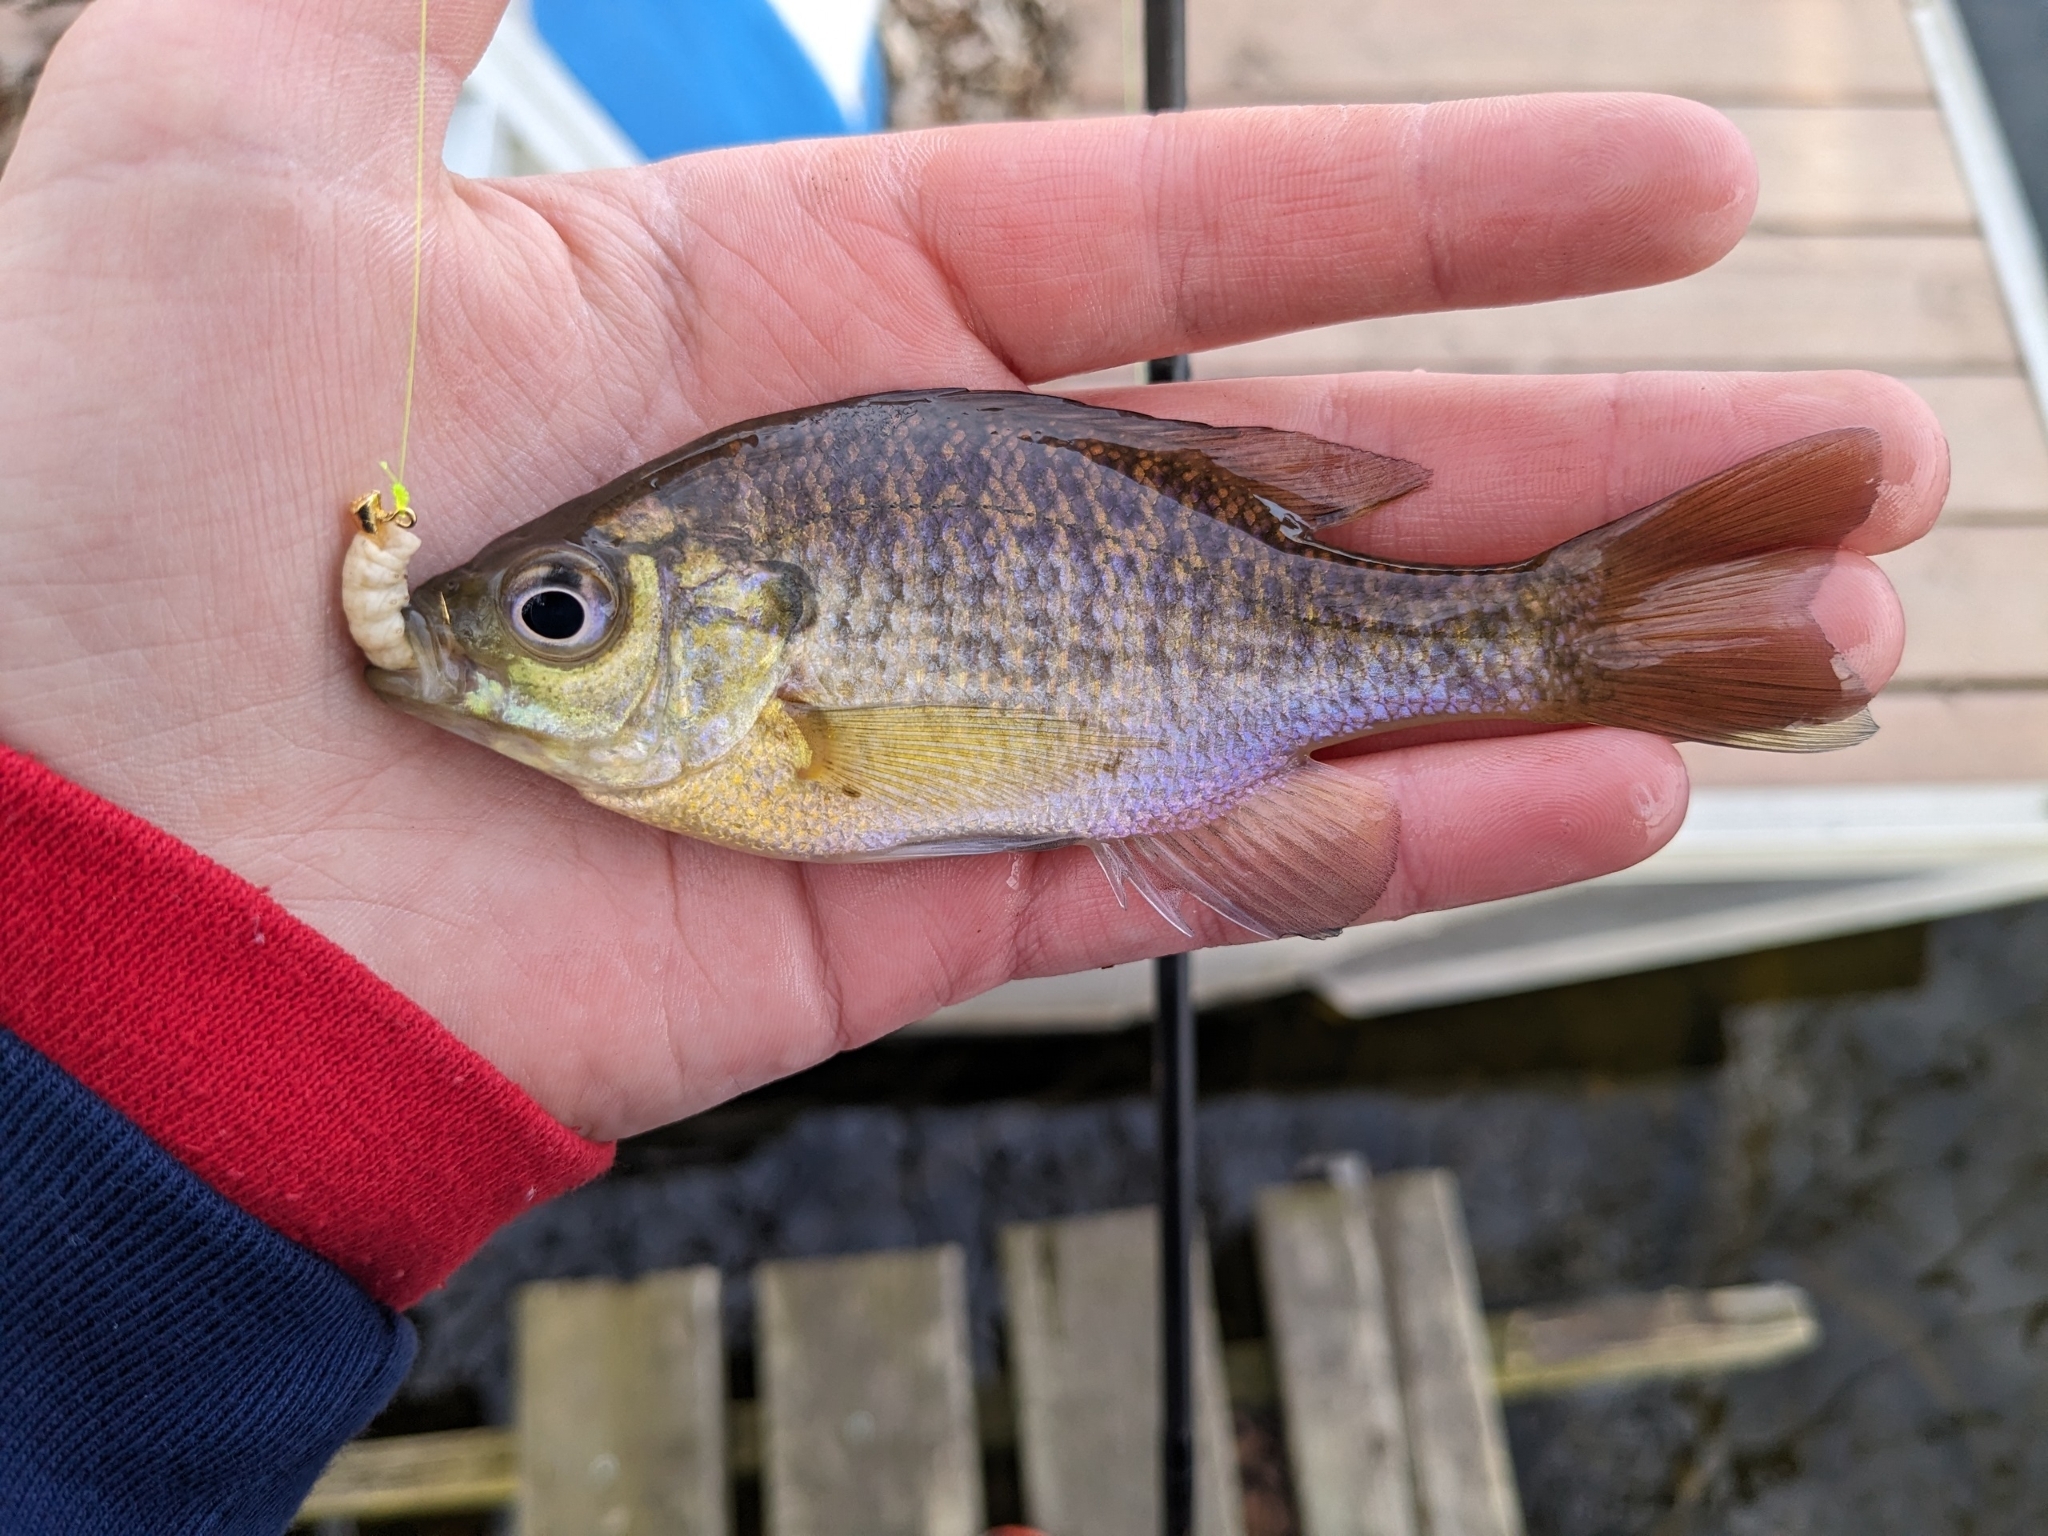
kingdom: Animalia
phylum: Chordata
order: Perciformes
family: Centrarchidae
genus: Lepomis
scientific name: Lepomis macrochirus
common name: Bluegill
